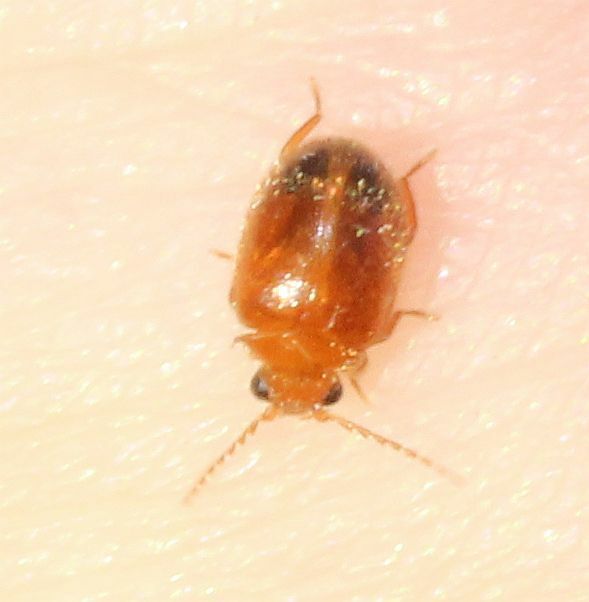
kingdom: Animalia
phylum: Arthropoda
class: Insecta
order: Coleoptera
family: Scirtidae
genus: Prionocyphon
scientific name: Prionocyphon serricornis
